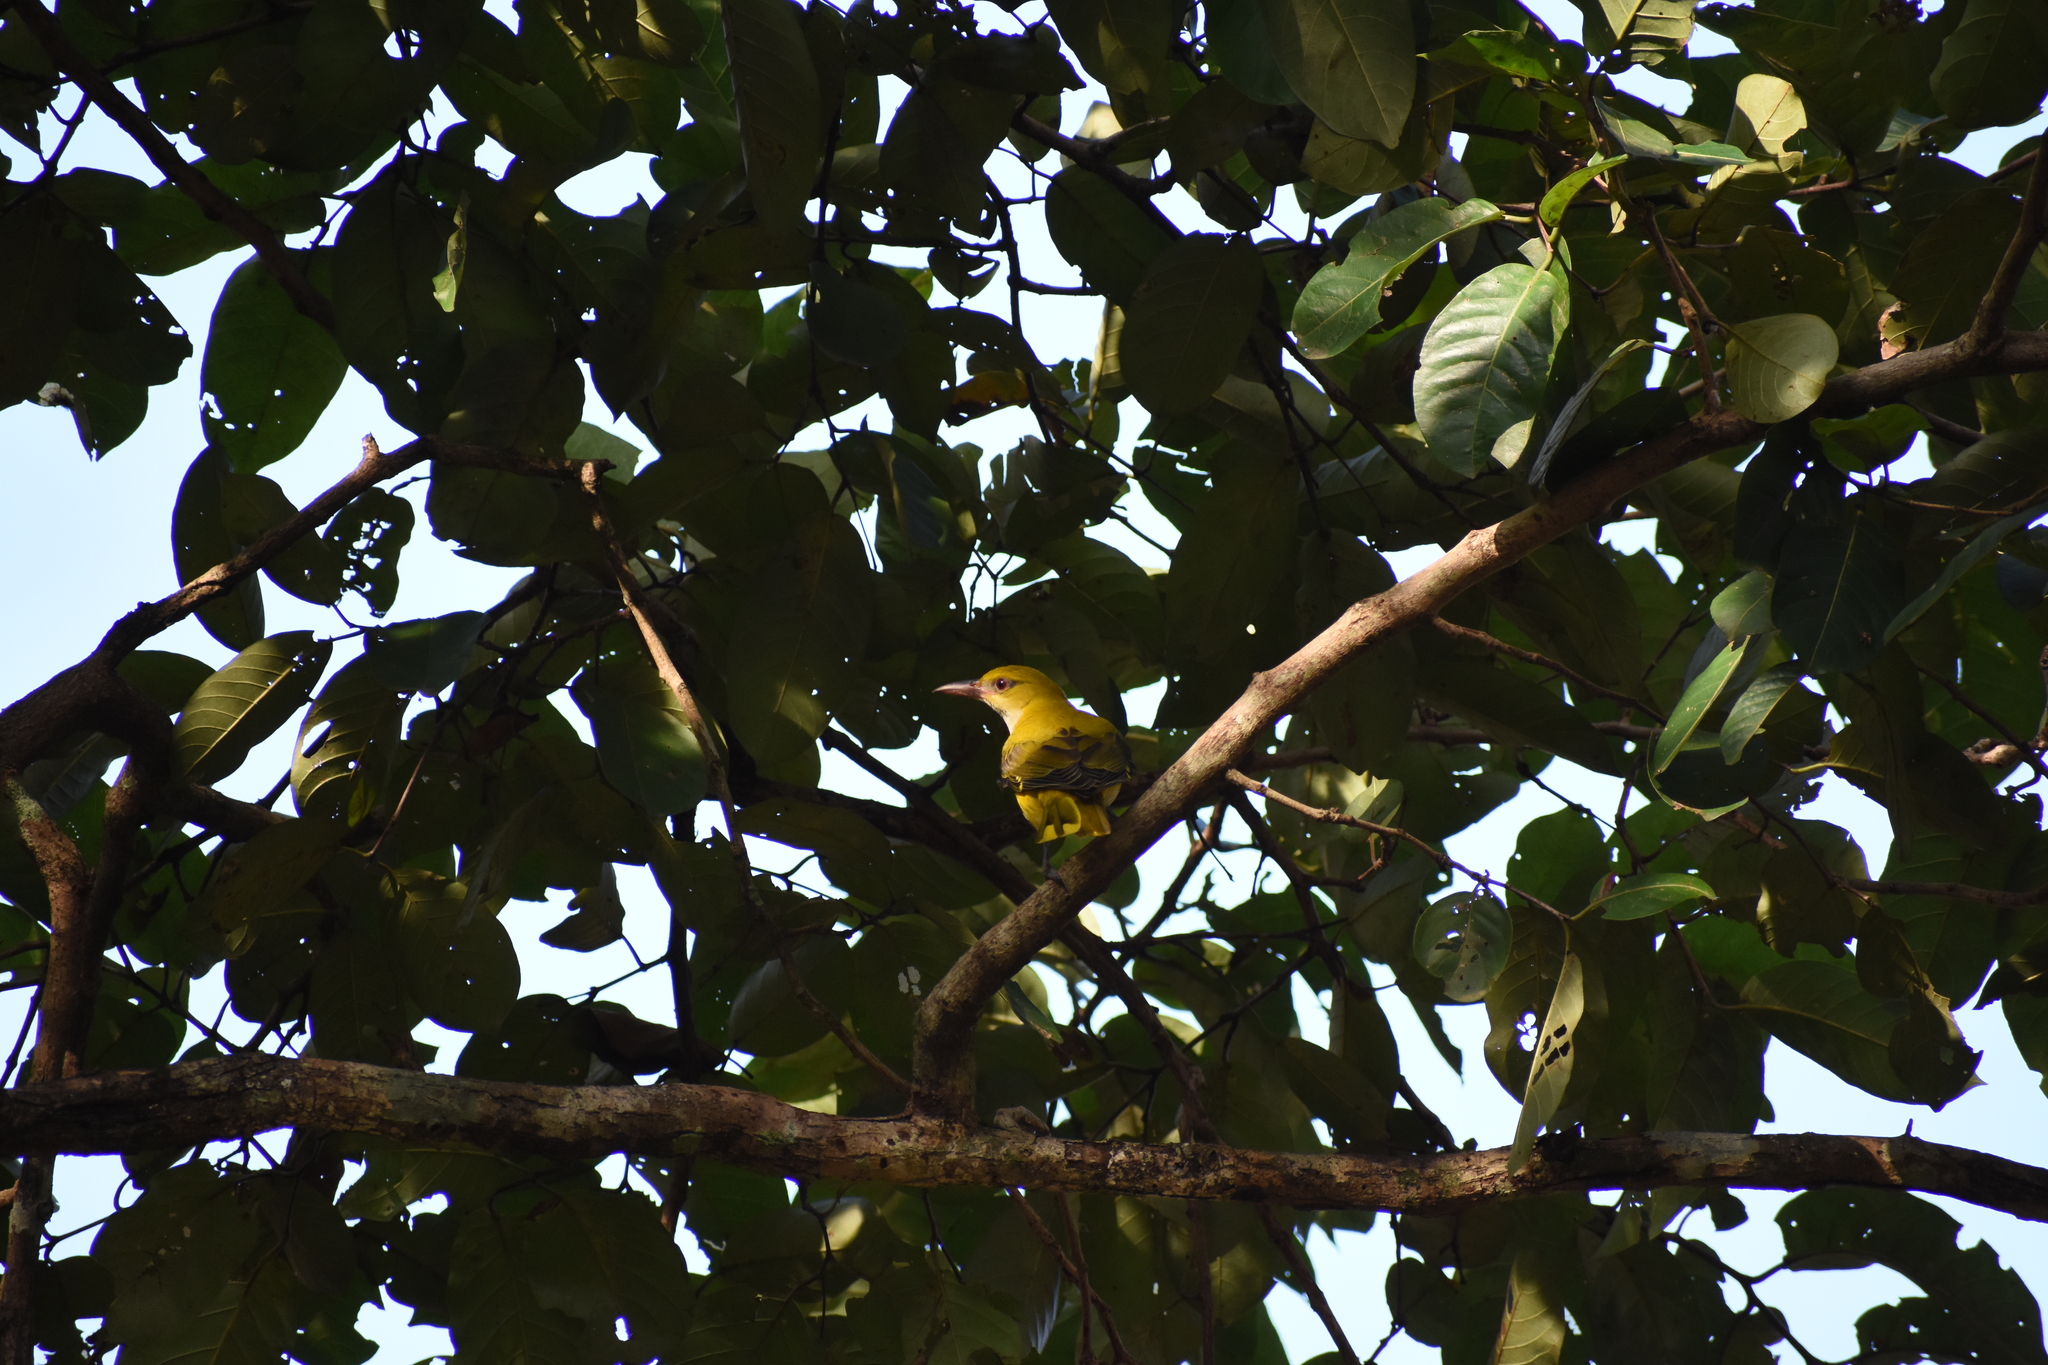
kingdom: Animalia
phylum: Chordata
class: Aves
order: Passeriformes
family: Oriolidae
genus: Oriolus
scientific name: Oriolus kundoo
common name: Indian golden oriole
